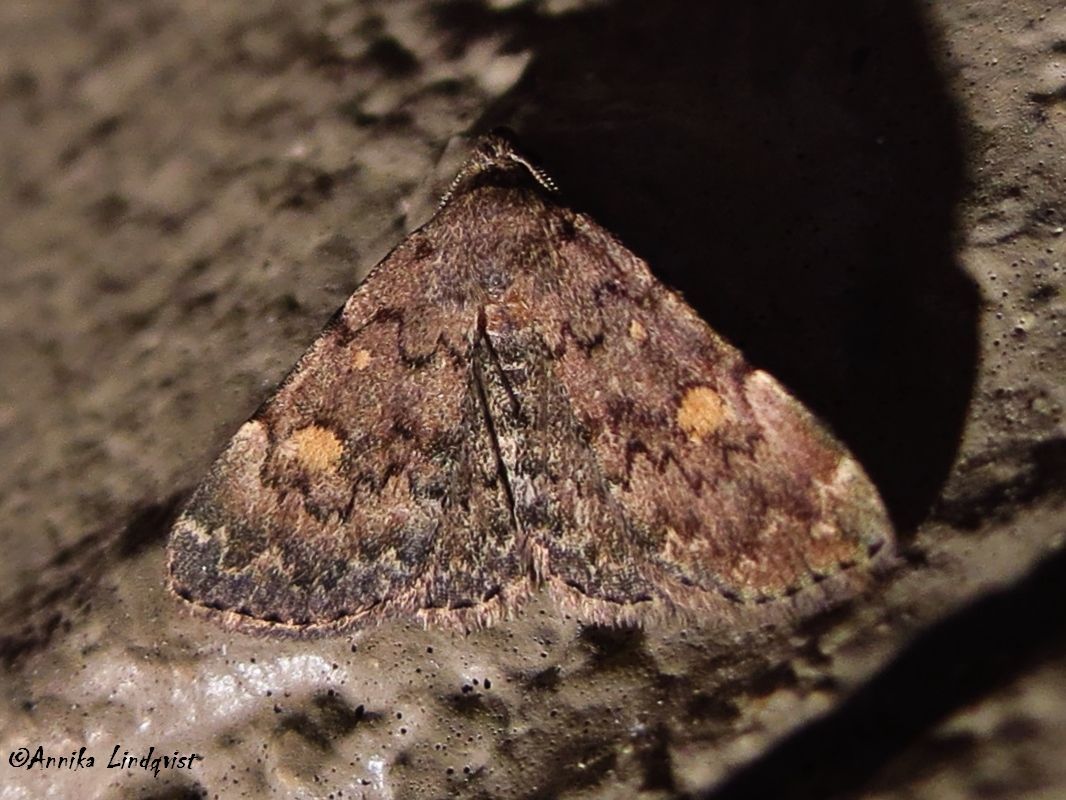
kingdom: Animalia
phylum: Arthropoda
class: Insecta
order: Lepidoptera
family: Erebidae
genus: Idia
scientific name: Idia aemula
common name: Common idia moth
